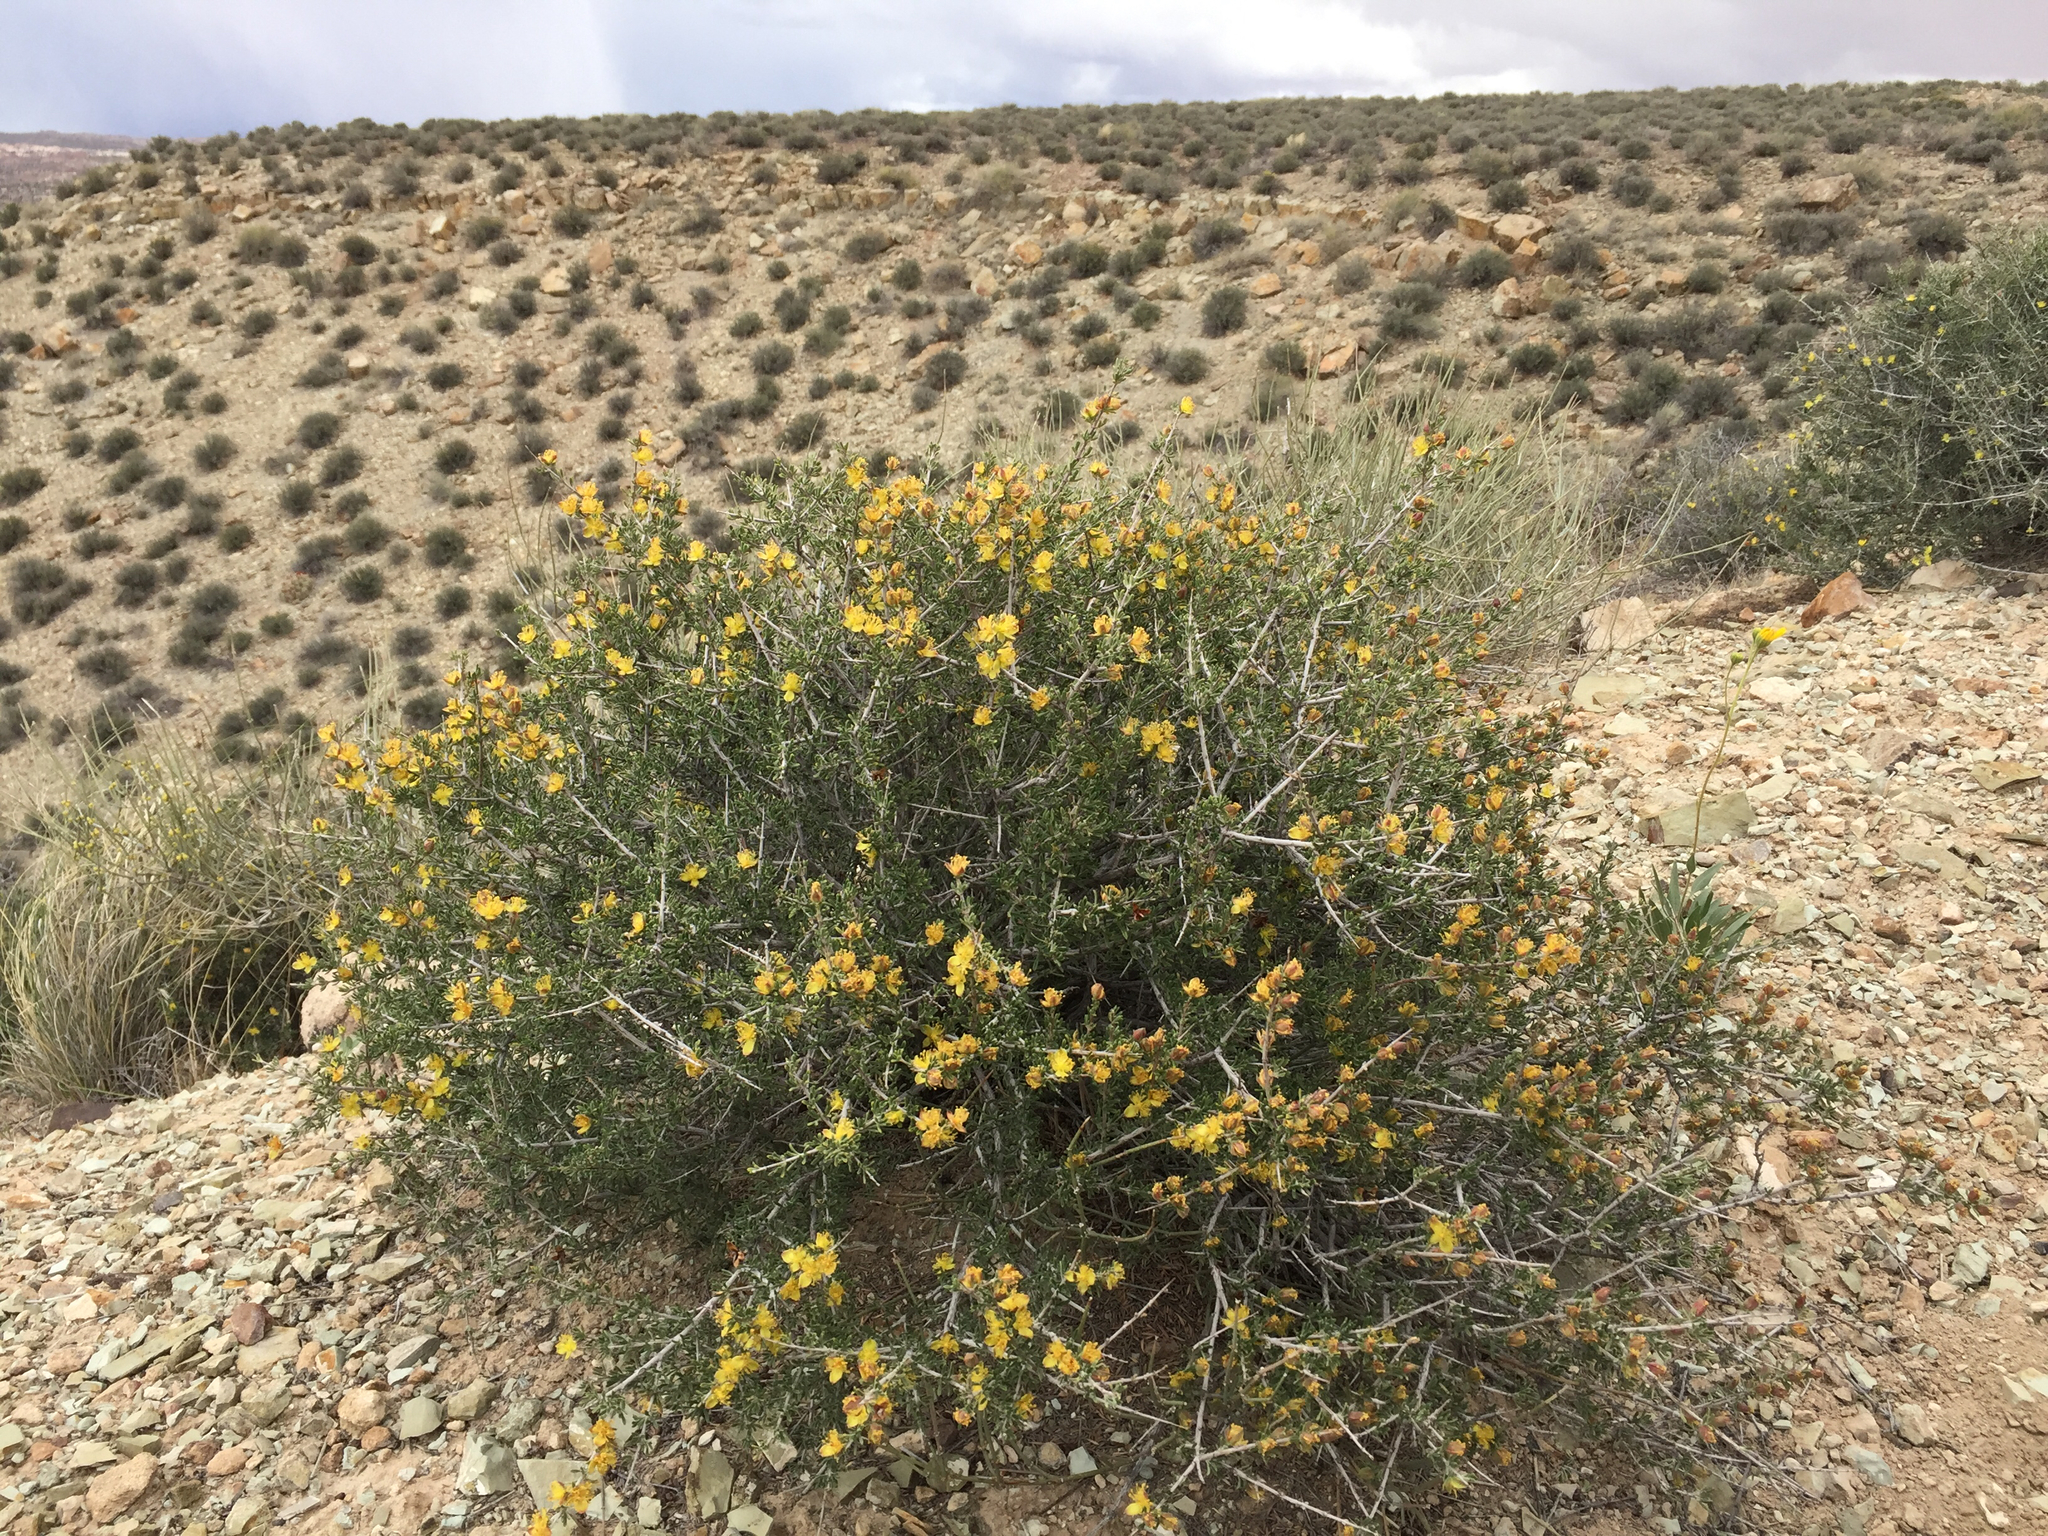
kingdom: Plantae
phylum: Tracheophyta
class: Magnoliopsida
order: Rosales
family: Rosaceae
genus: Coleogyne
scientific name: Coleogyne ramosissima
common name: Blackbrush
